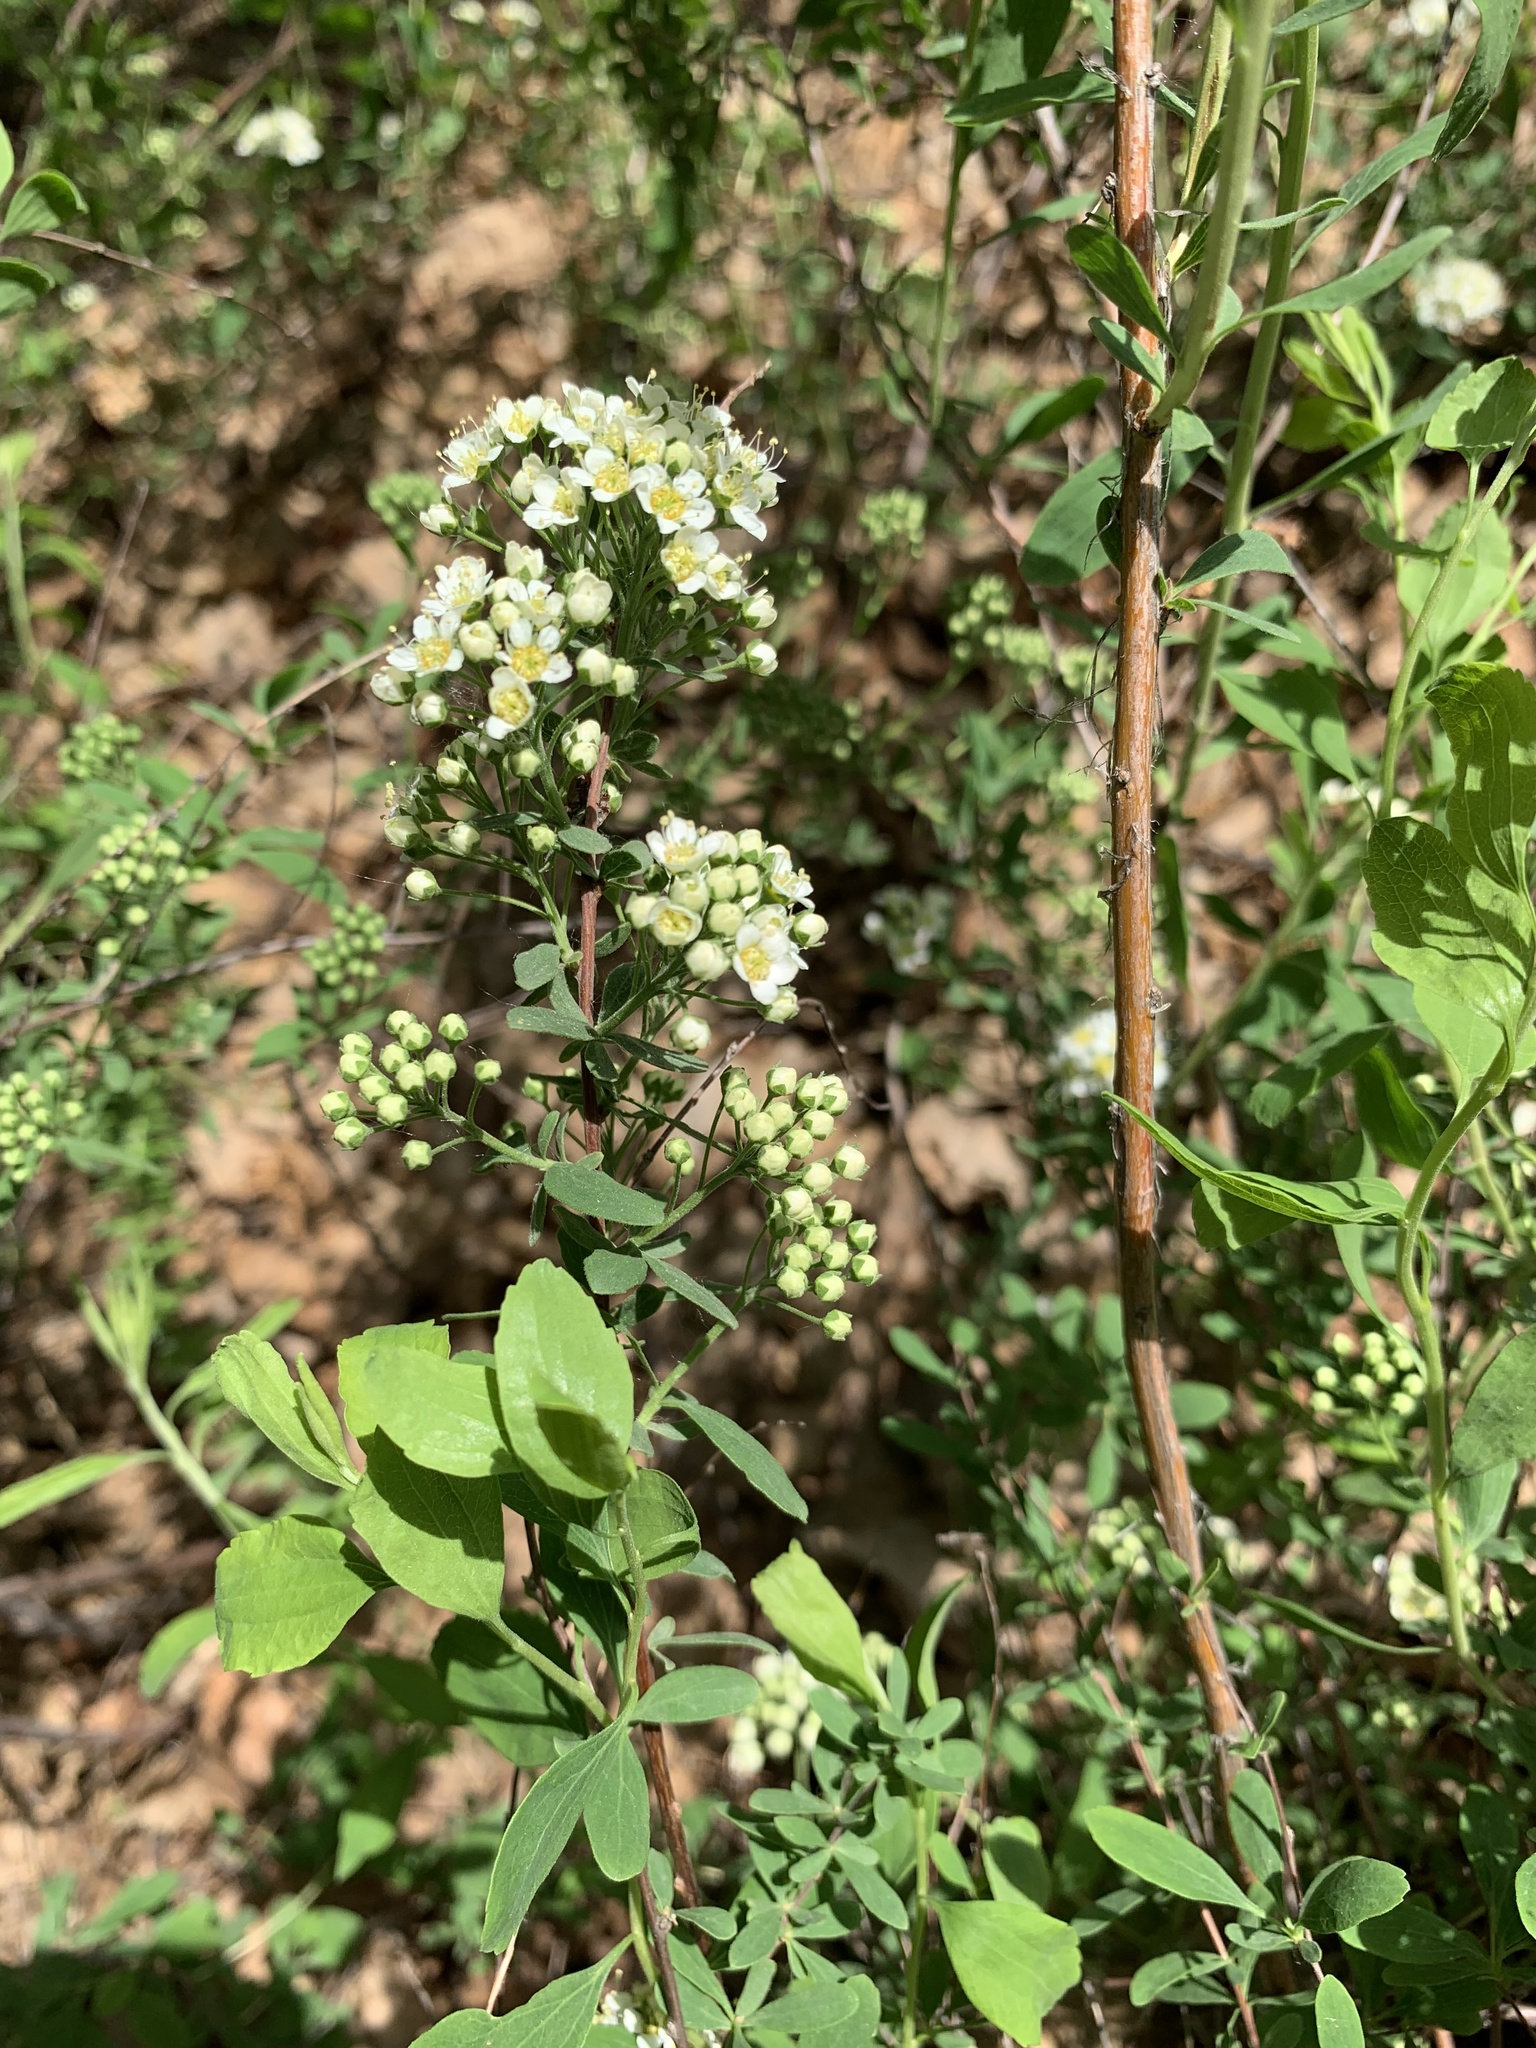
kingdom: Plantae
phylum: Tracheophyta
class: Magnoliopsida
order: Rosales
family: Rosaceae
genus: Spiraea
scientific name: Spiraea crenata
